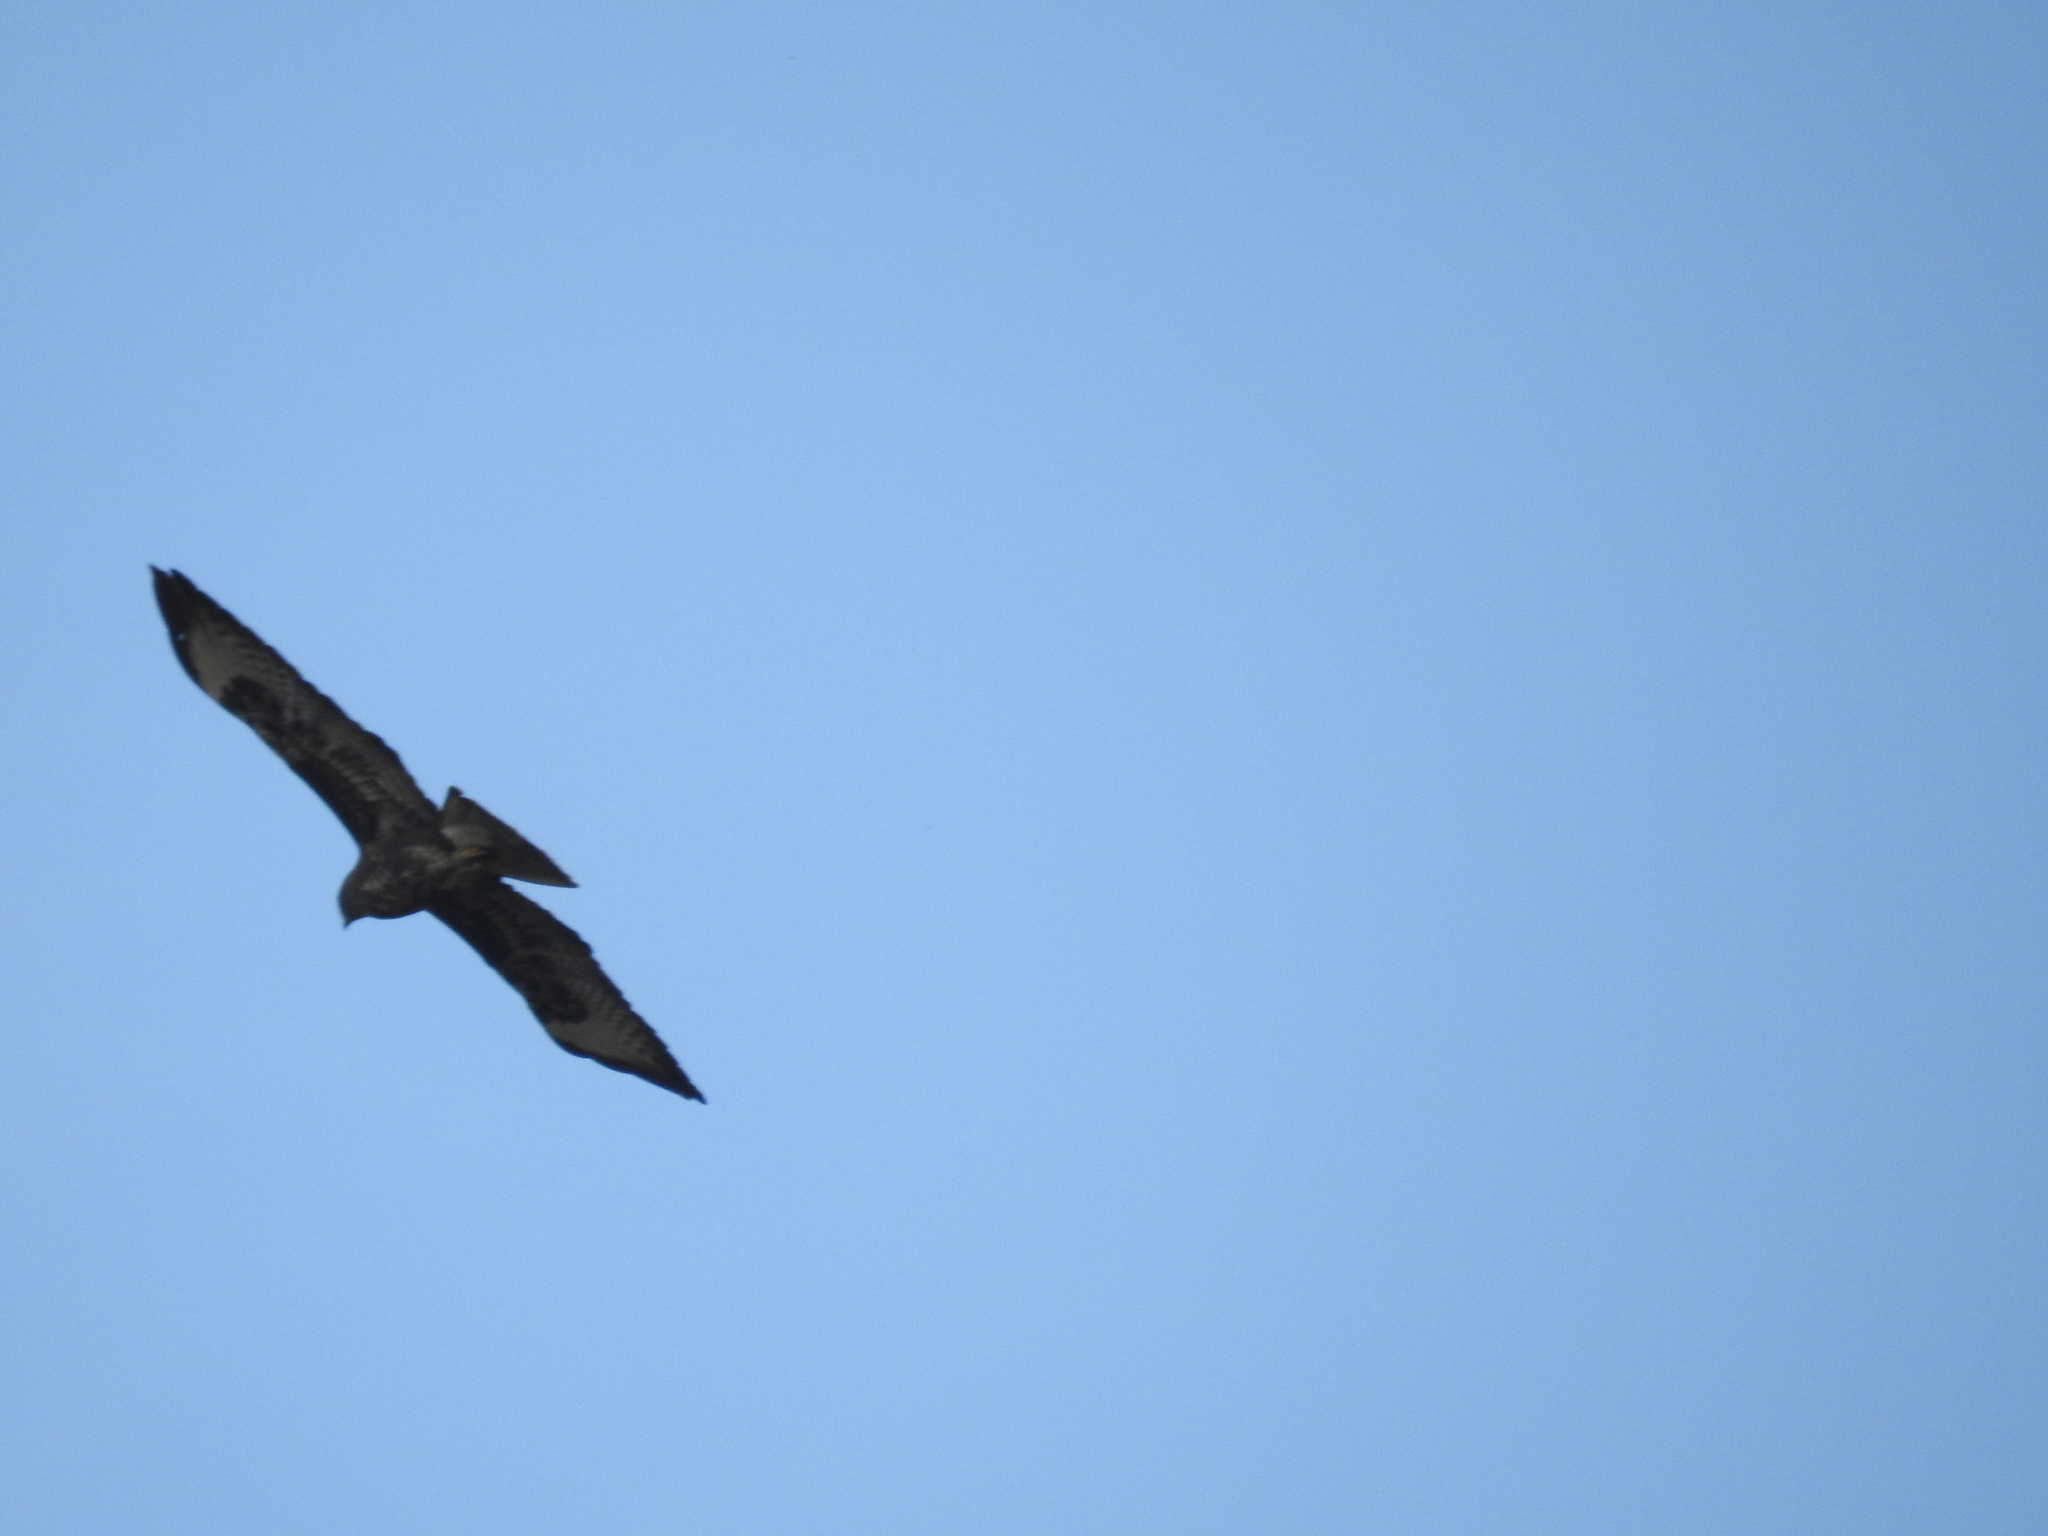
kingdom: Animalia
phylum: Chordata
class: Aves
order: Accipitriformes
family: Accipitridae
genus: Buteo
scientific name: Buteo buteo
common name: Common buzzard
